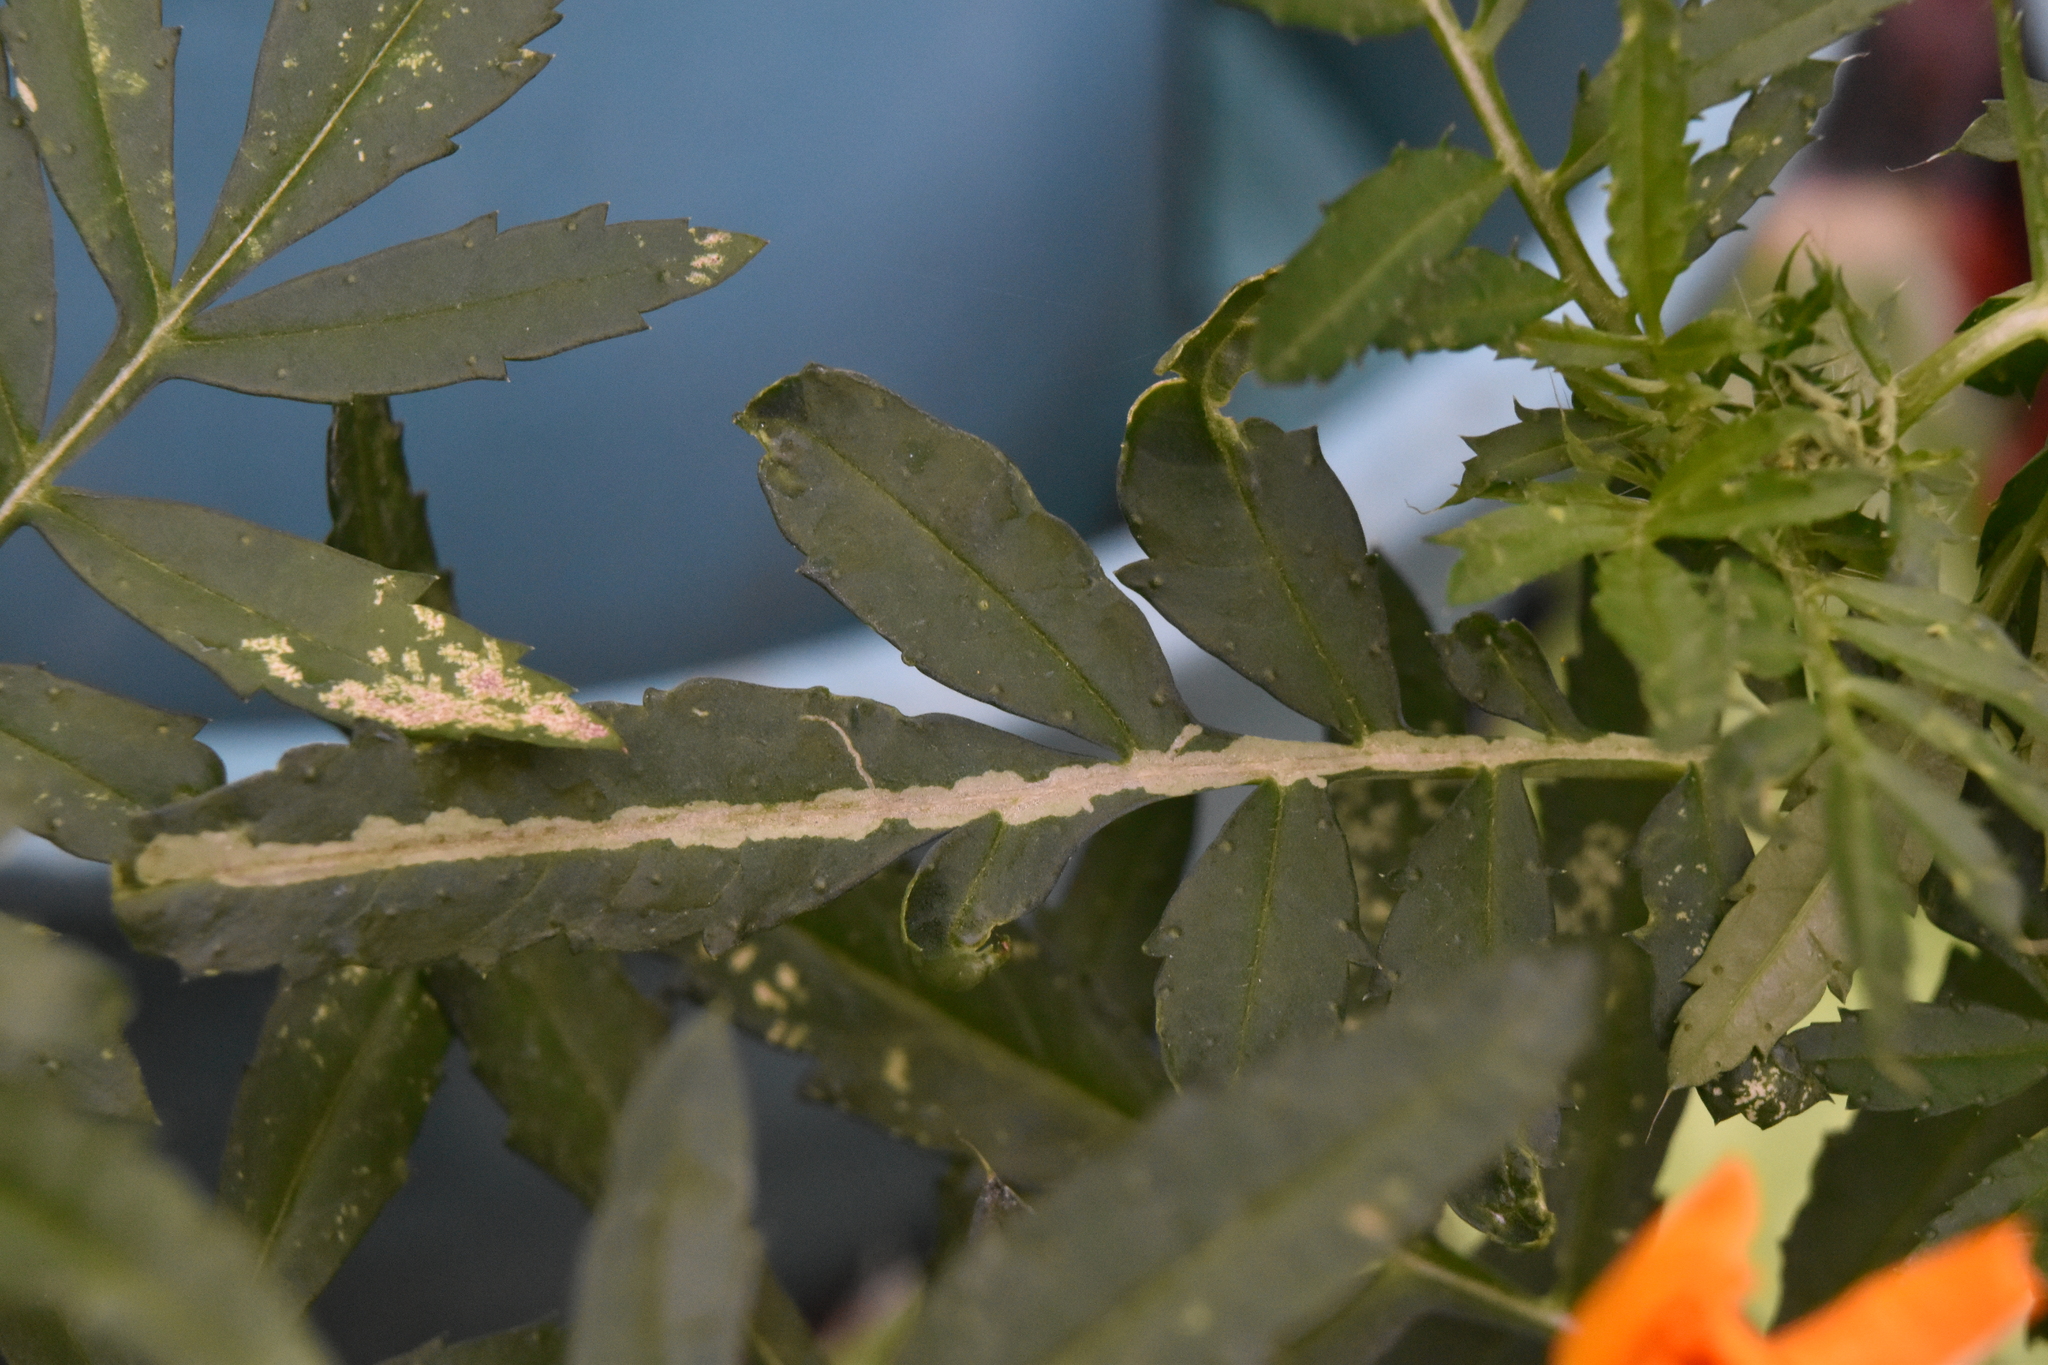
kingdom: Animalia
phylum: Arthropoda
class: Insecta
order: Diptera
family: Agromyzidae
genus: Liriomyza
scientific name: Liriomyza strigata
